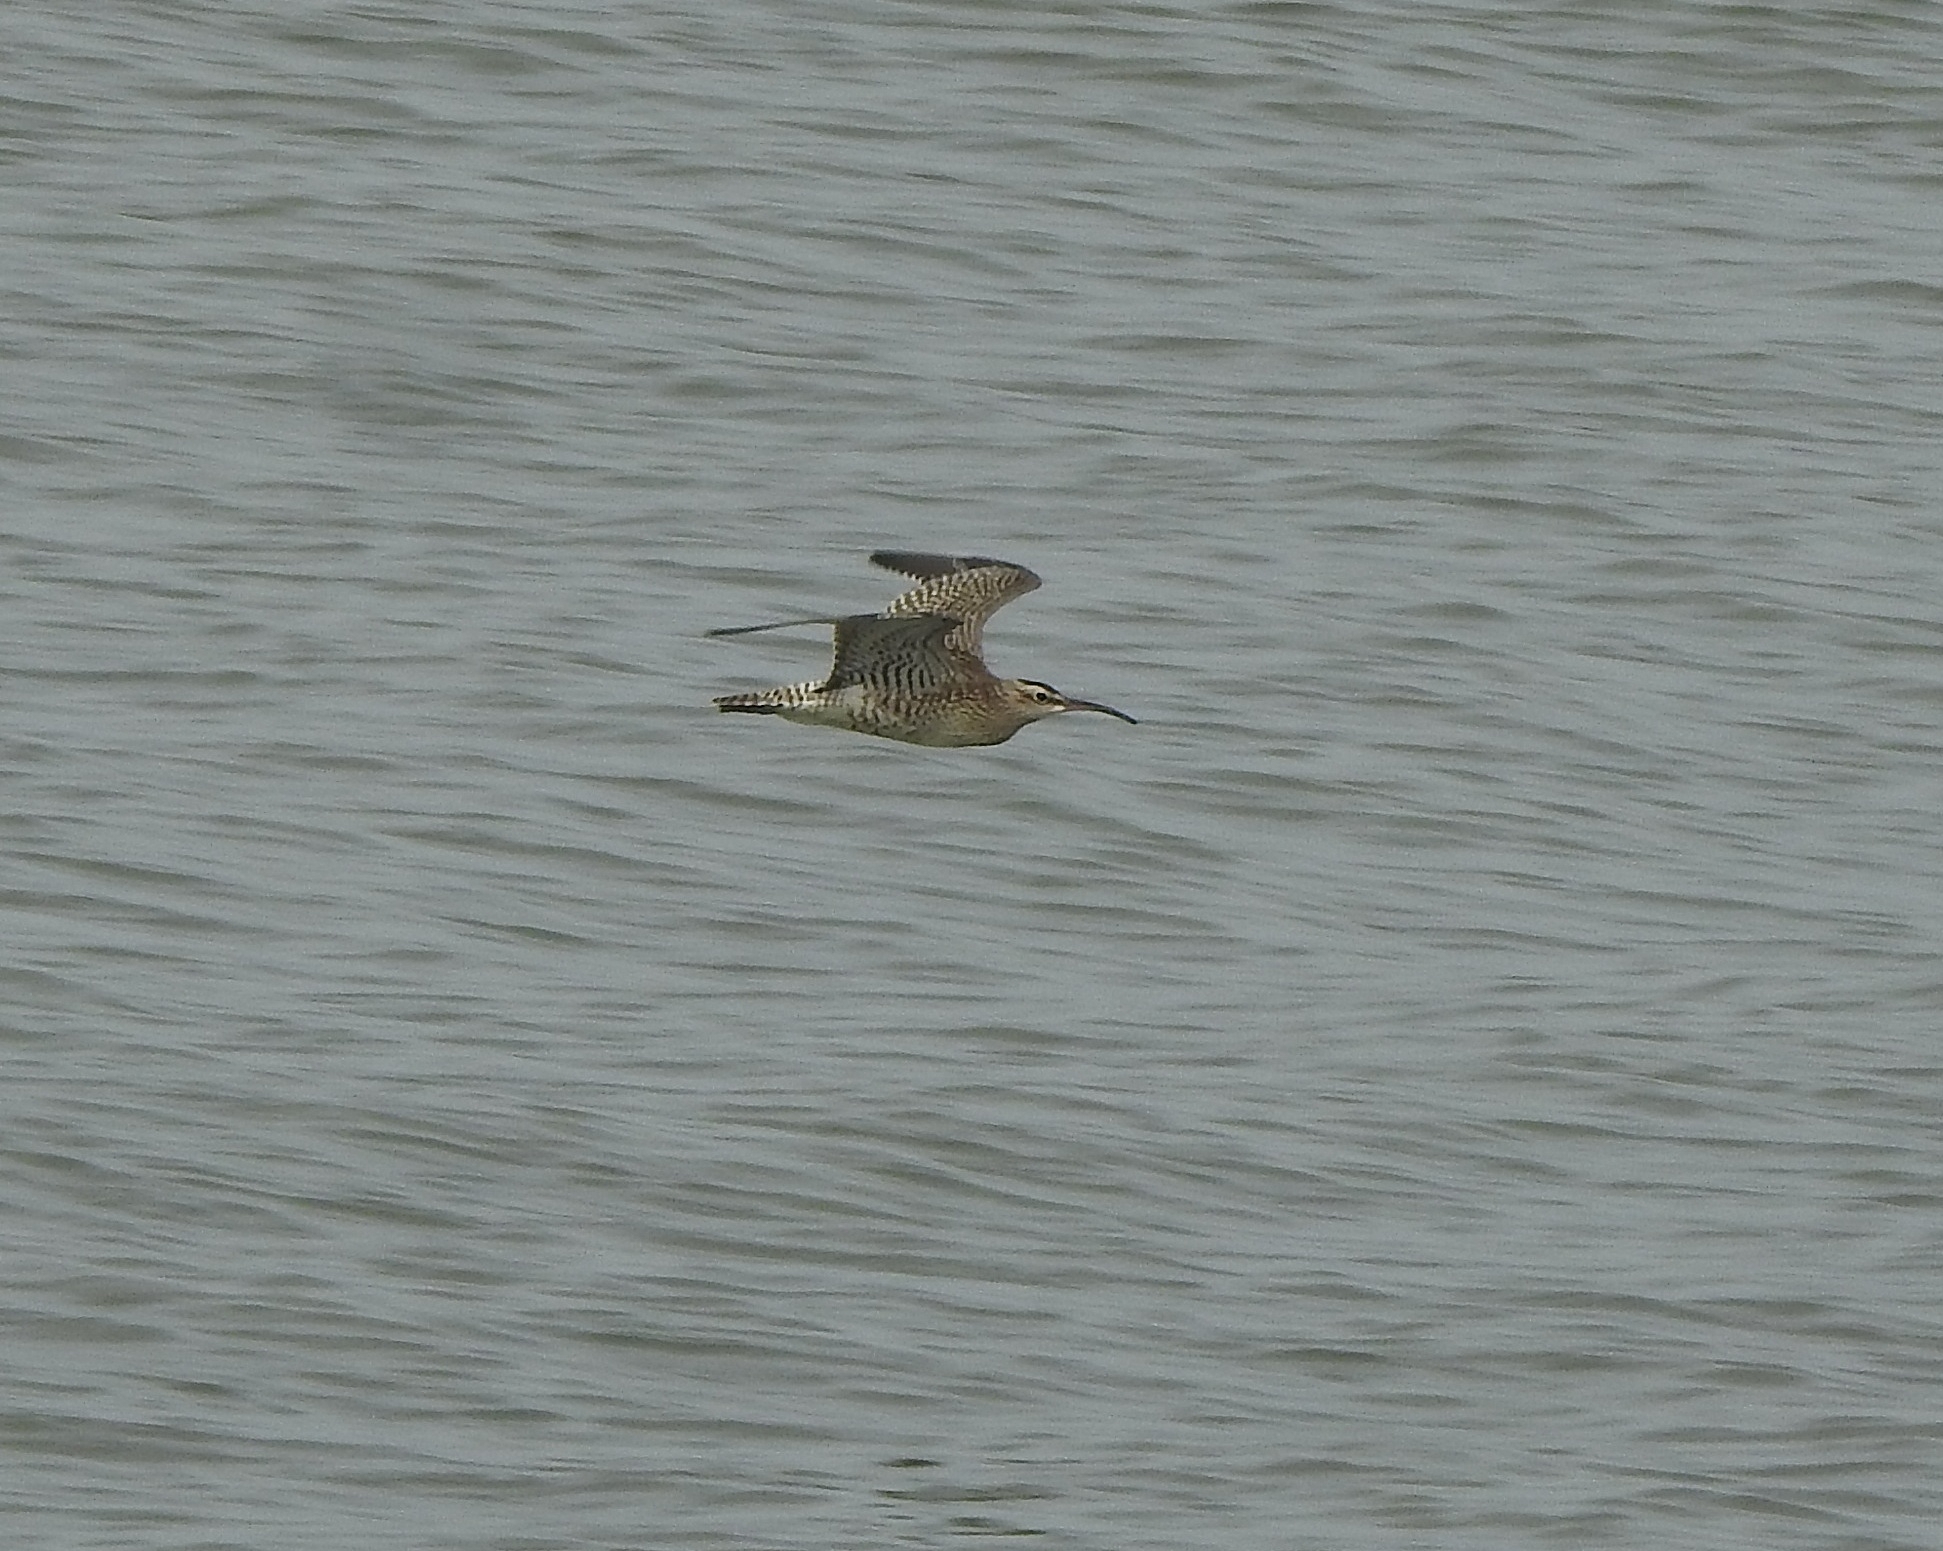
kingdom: Animalia
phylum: Chordata
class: Aves
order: Charadriiformes
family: Scolopacidae
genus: Numenius
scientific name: Numenius phaeopus
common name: Whimbrel
